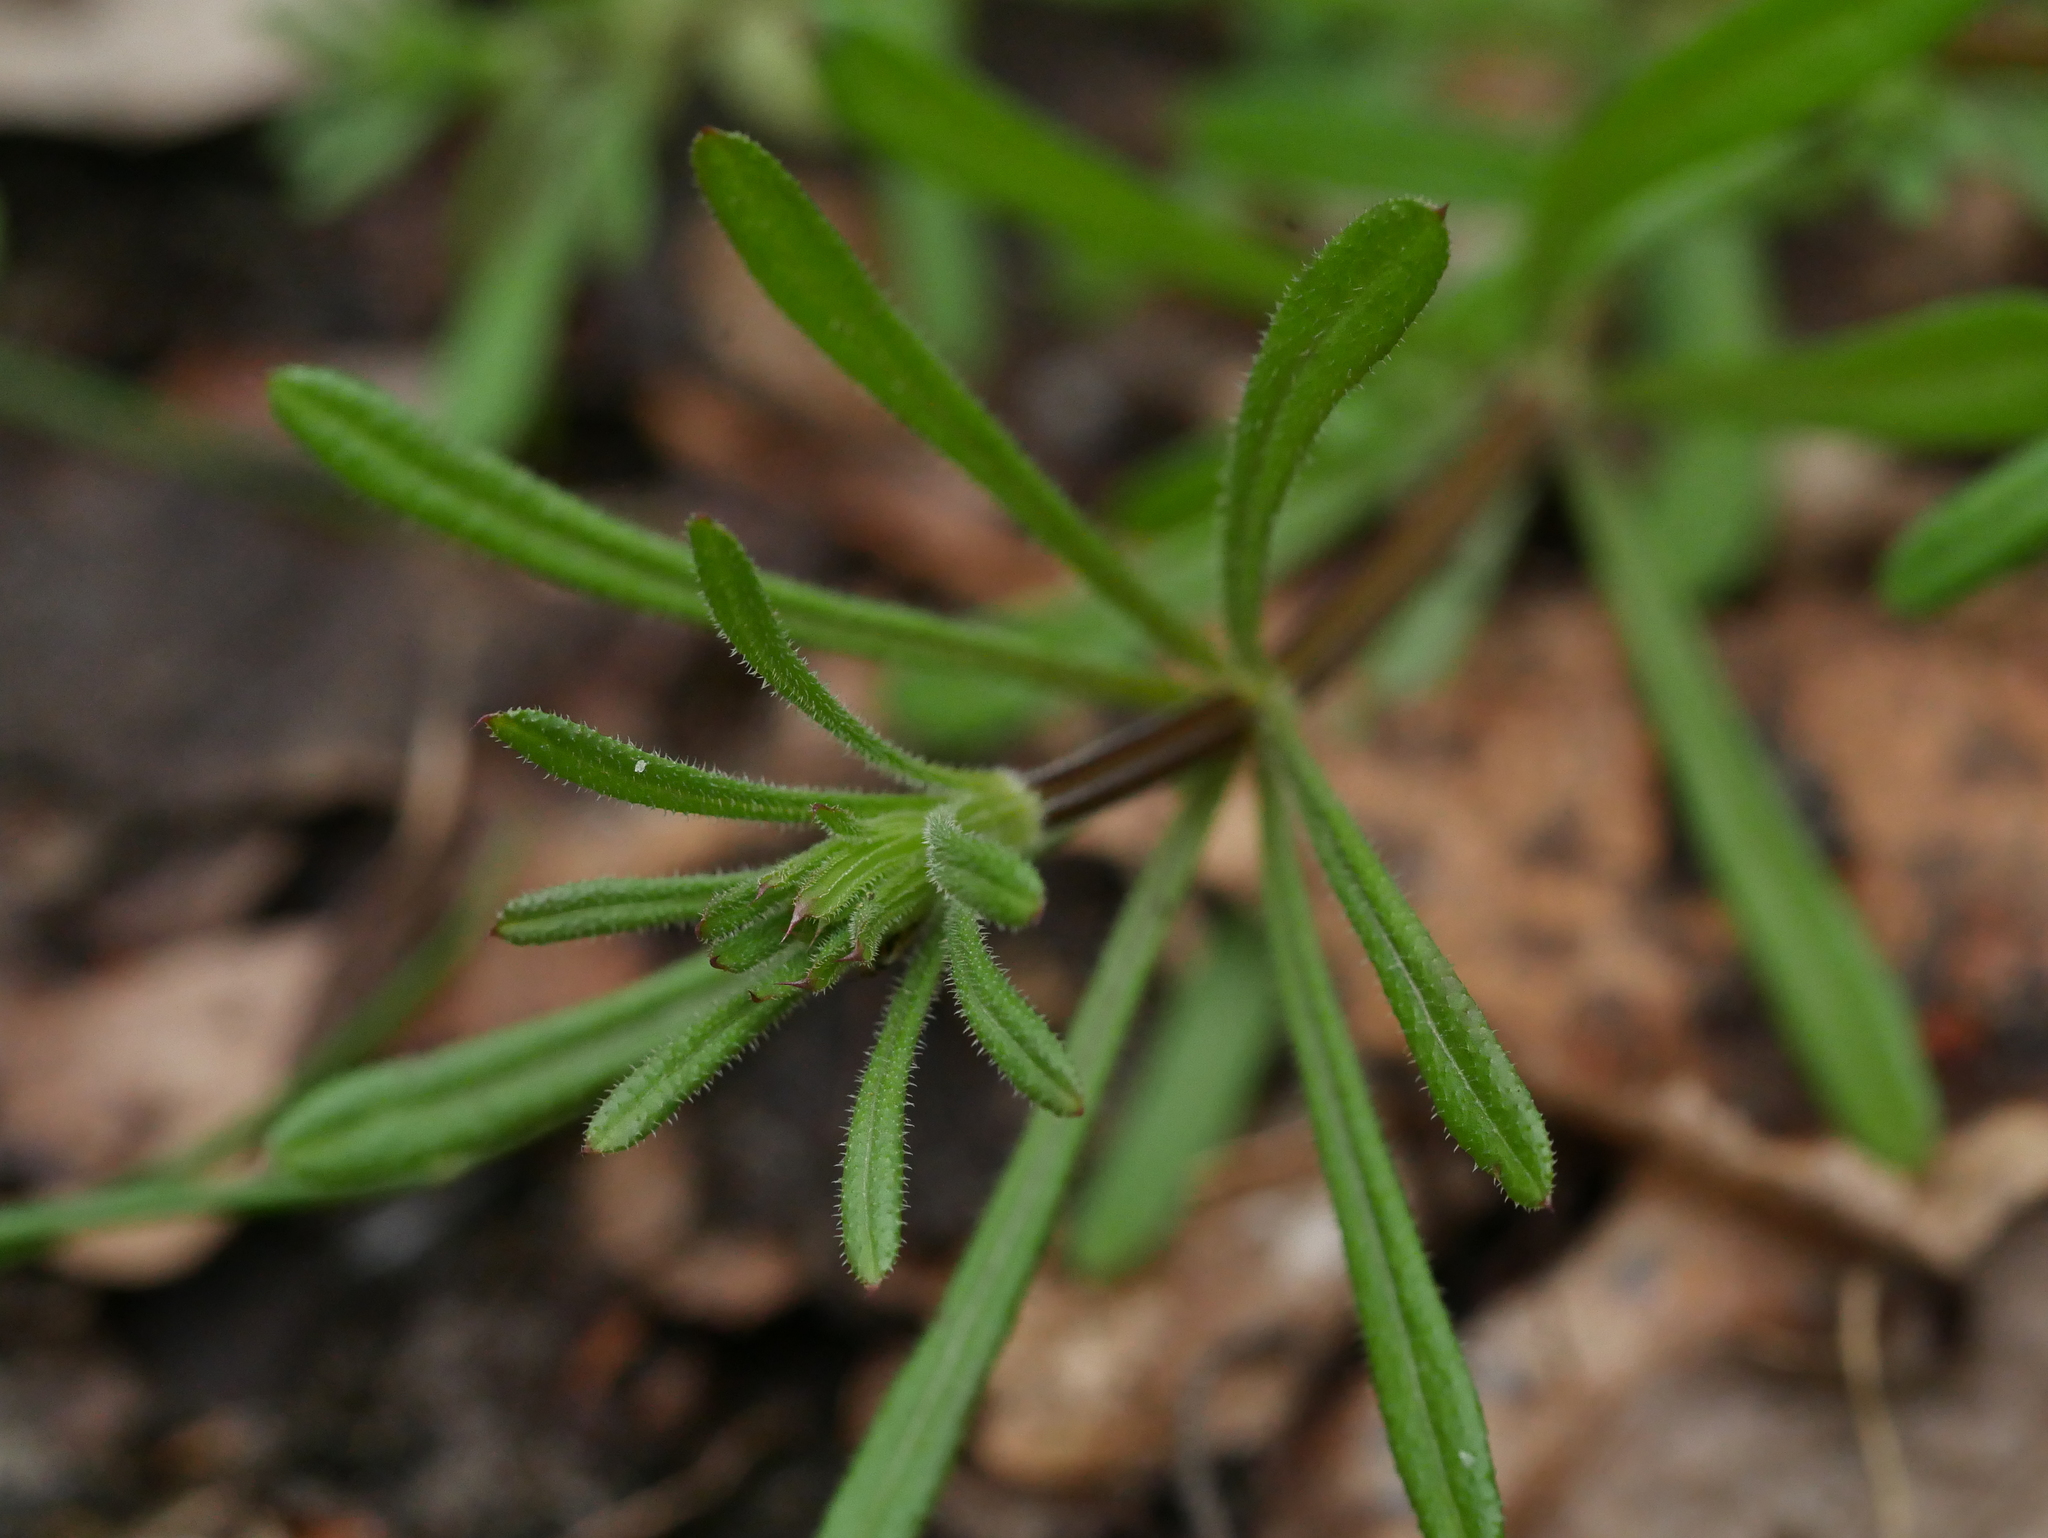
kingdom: Plantae
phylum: Tracheophyta
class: Magnoliopsida
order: Gentianales
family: Rubiaceae
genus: Galium
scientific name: Galium aparine
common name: Cleavers
